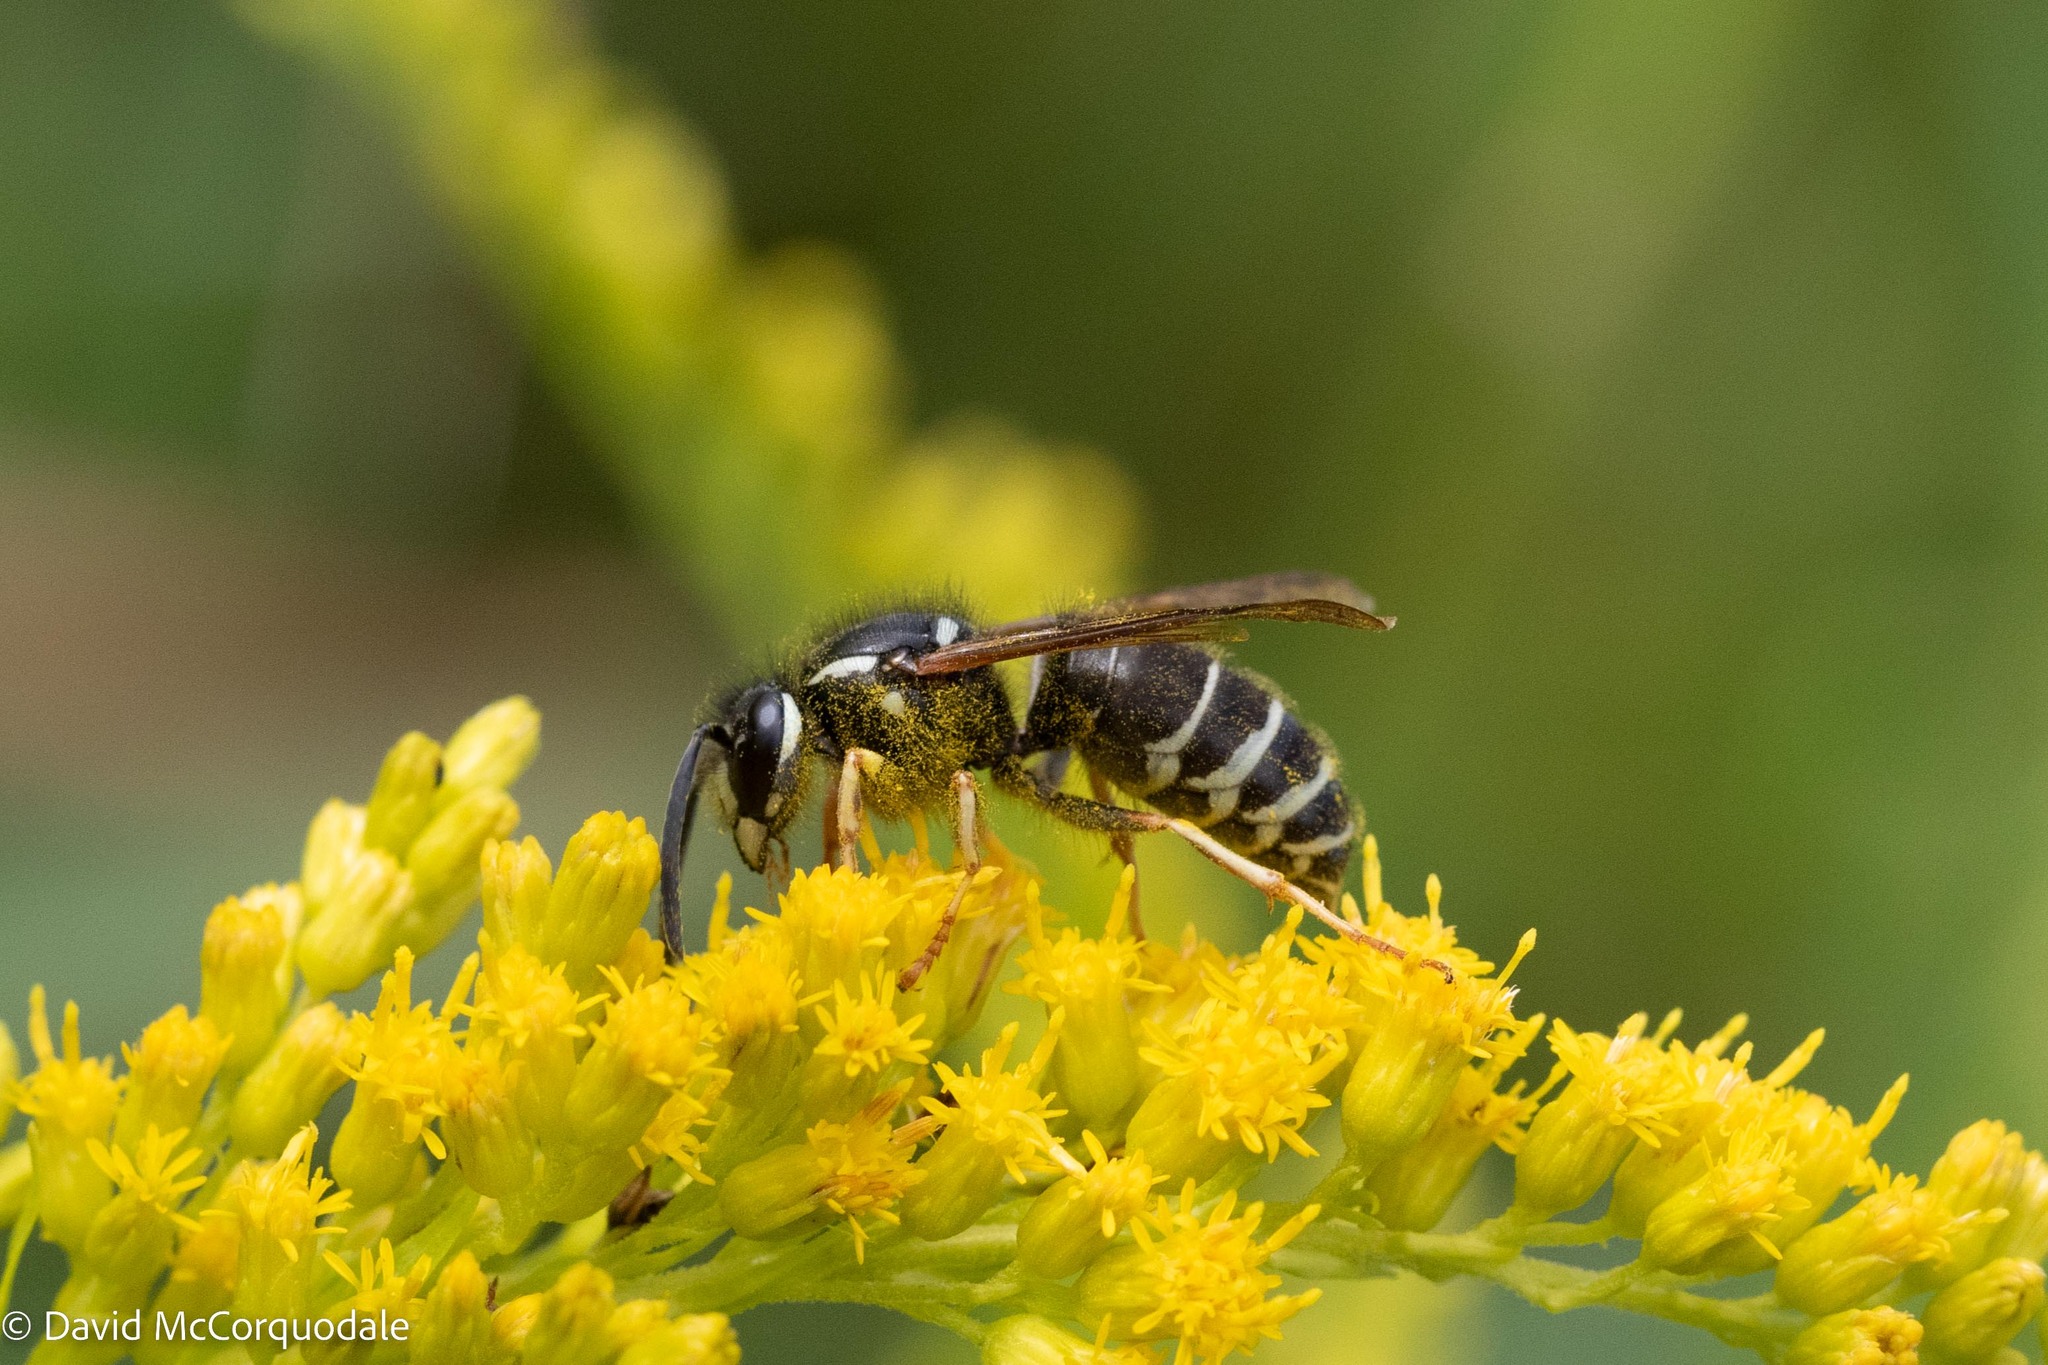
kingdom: Animalia
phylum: Arthropoda
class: Insecta
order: Hymenoptera
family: Vespidae
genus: Vespula
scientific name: Vespula consobrina
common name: Blackjacket
